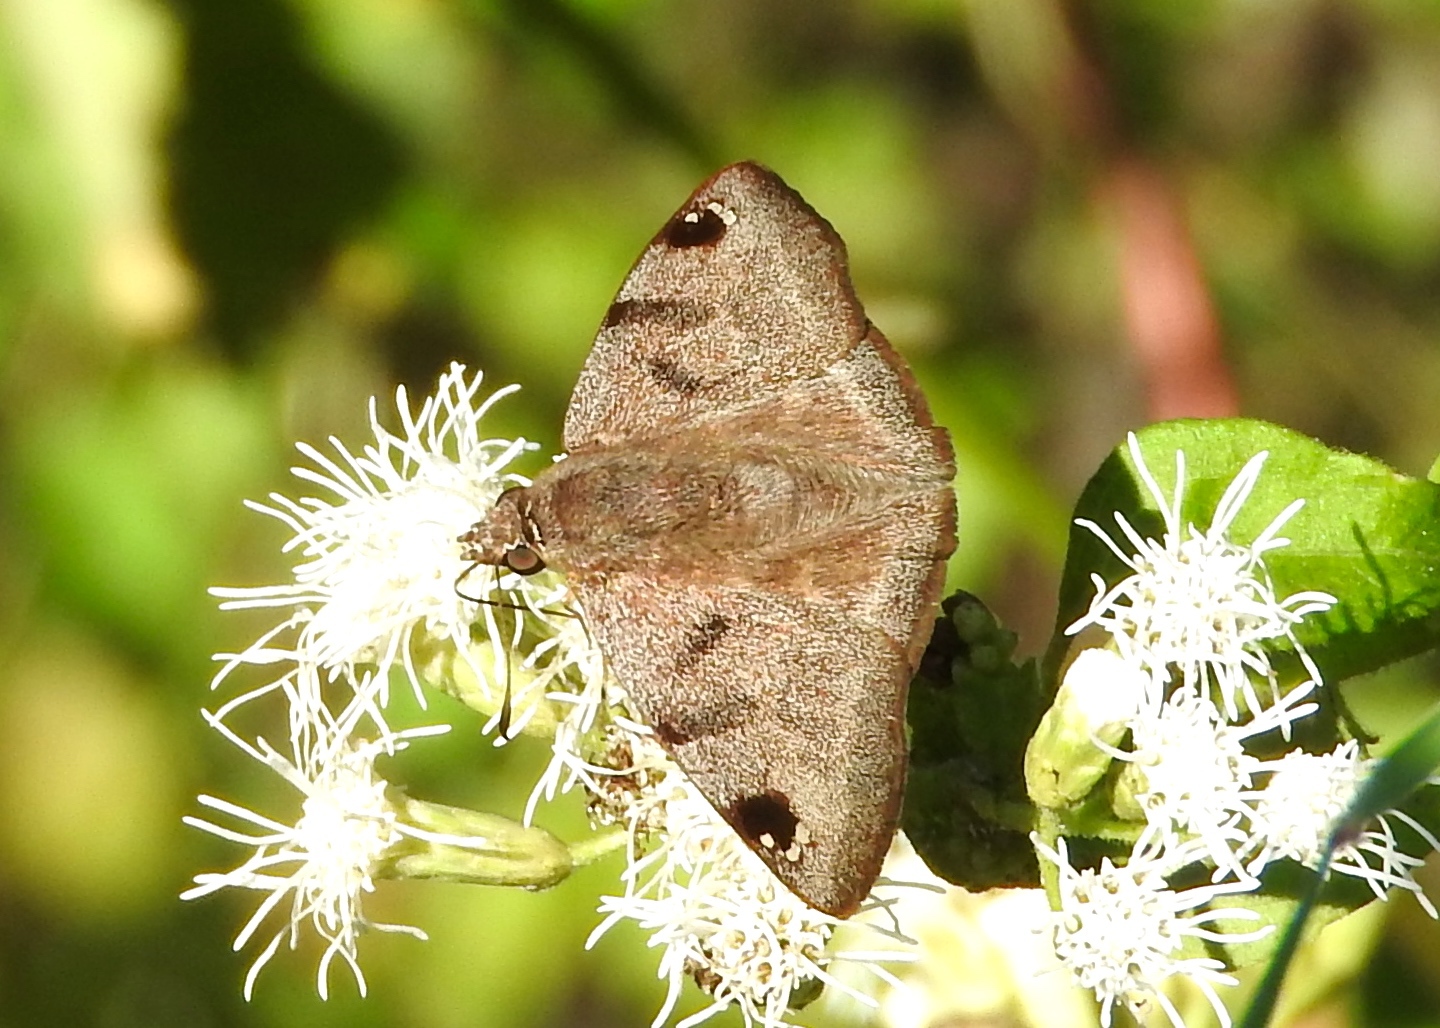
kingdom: Animalia
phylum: Arthropoda
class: Insecta
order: Lepidoptera
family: Hesperiidae
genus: Arteurotia
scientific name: Arteurotia tractipennis
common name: Starred skipper
